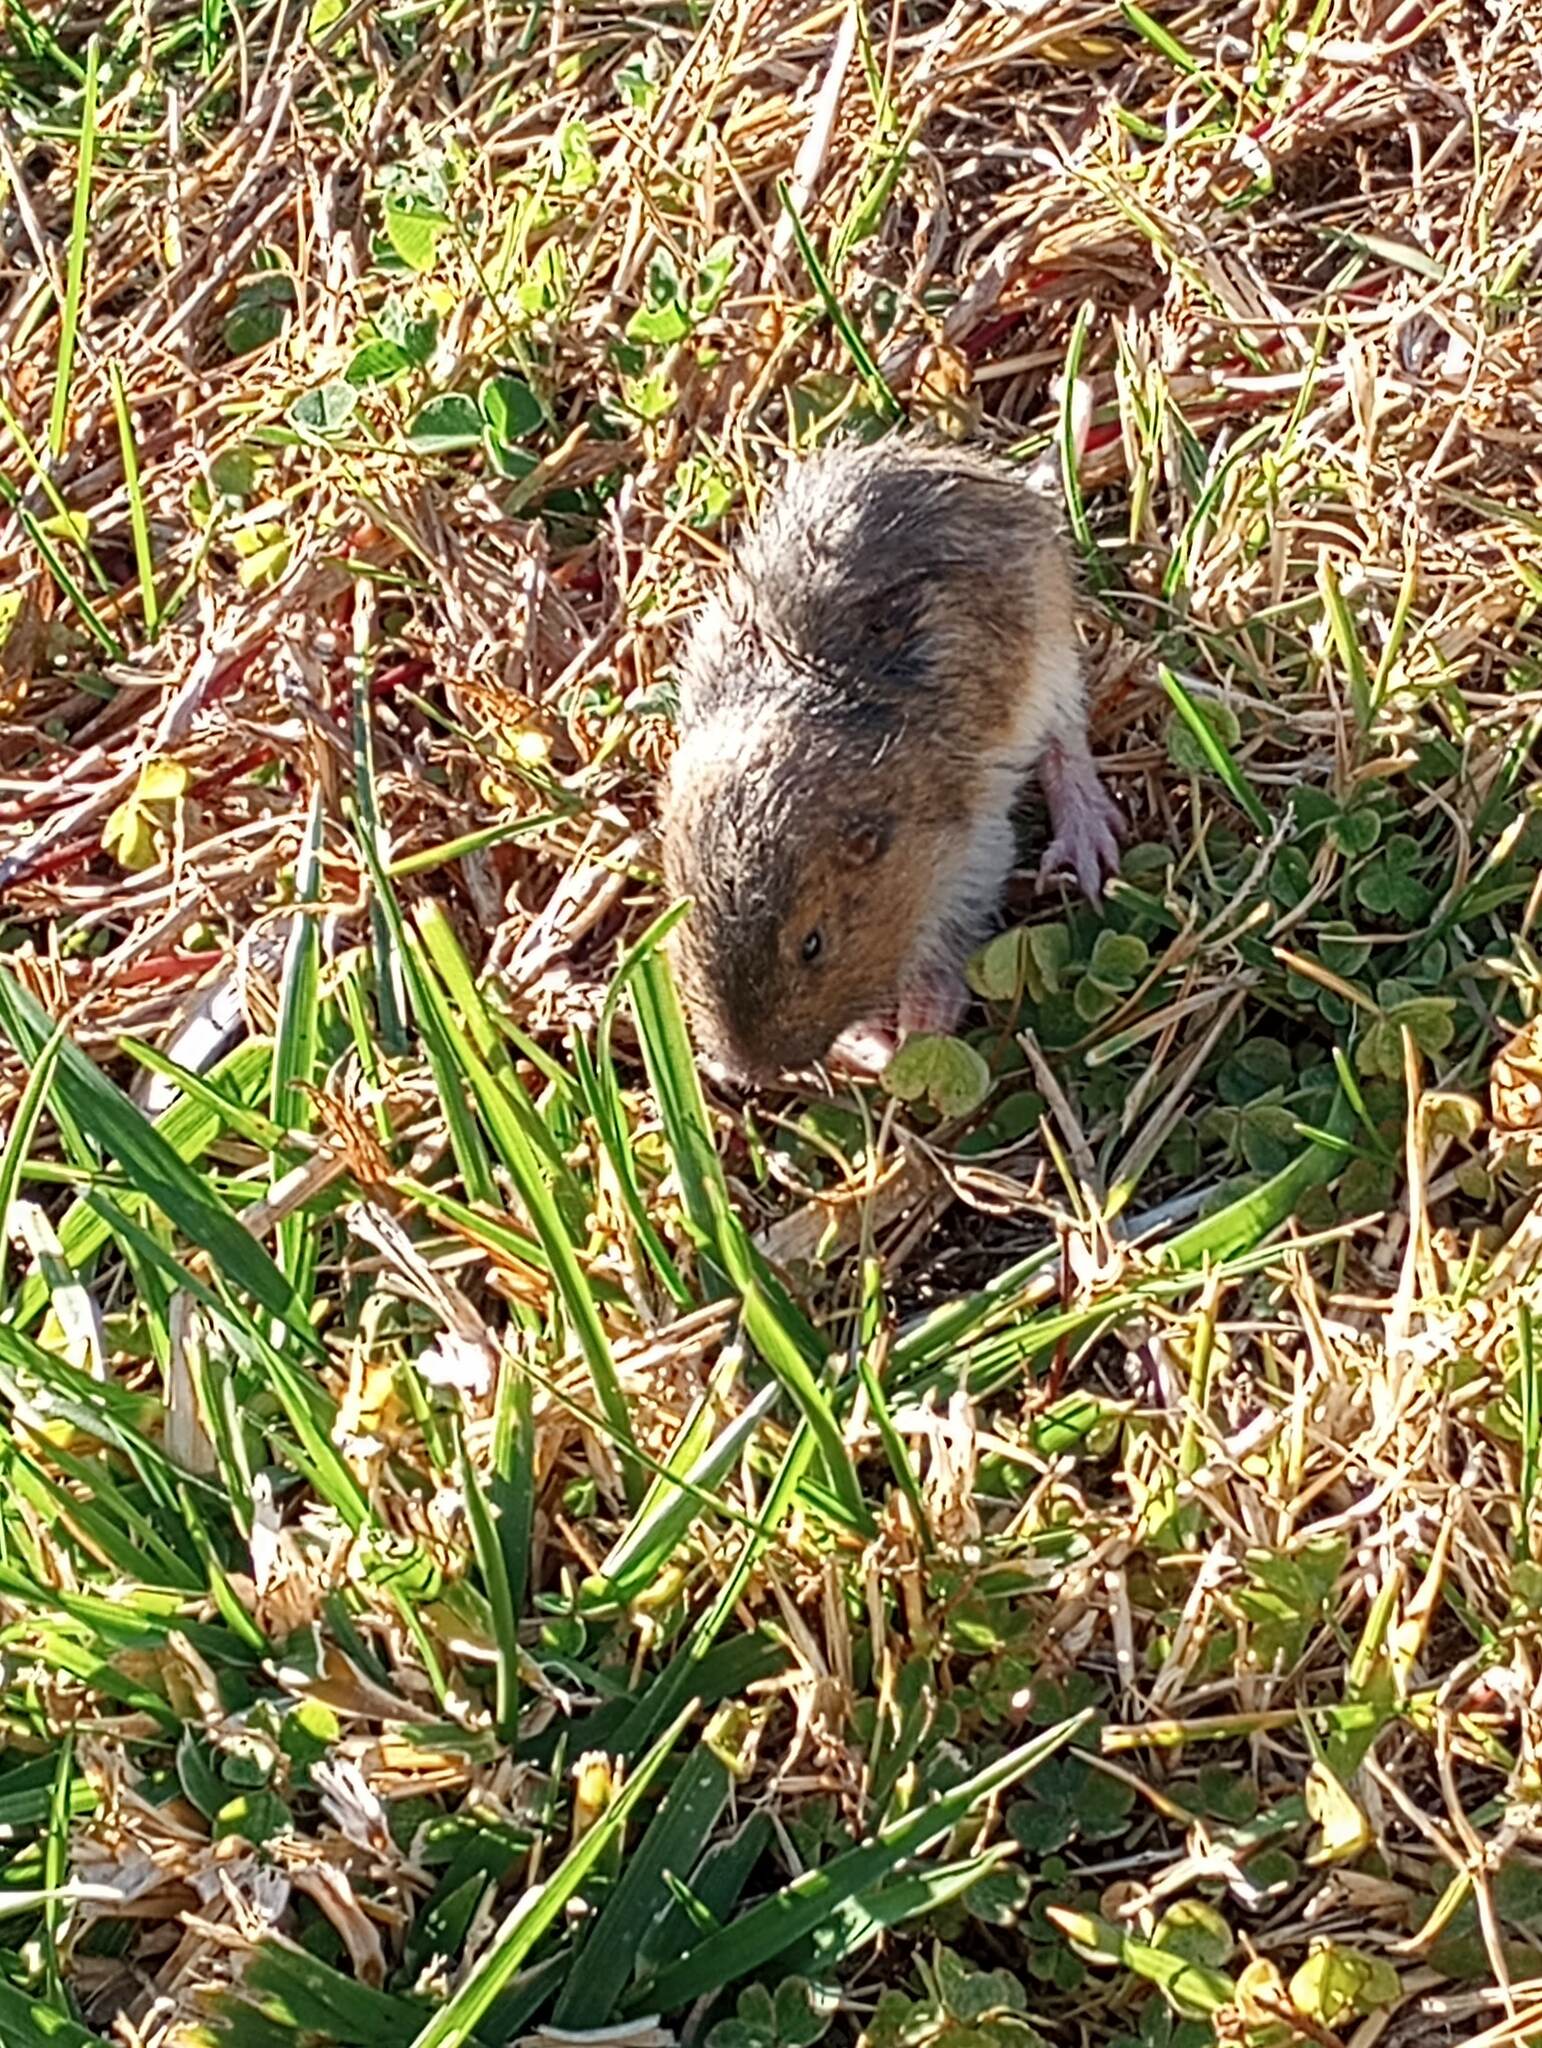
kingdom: Animalia
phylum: Chordata
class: Mammalia
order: Rodentia
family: Geomyidae
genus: Thomomys
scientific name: Thomomys bottae
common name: Botta's pocket gopher
